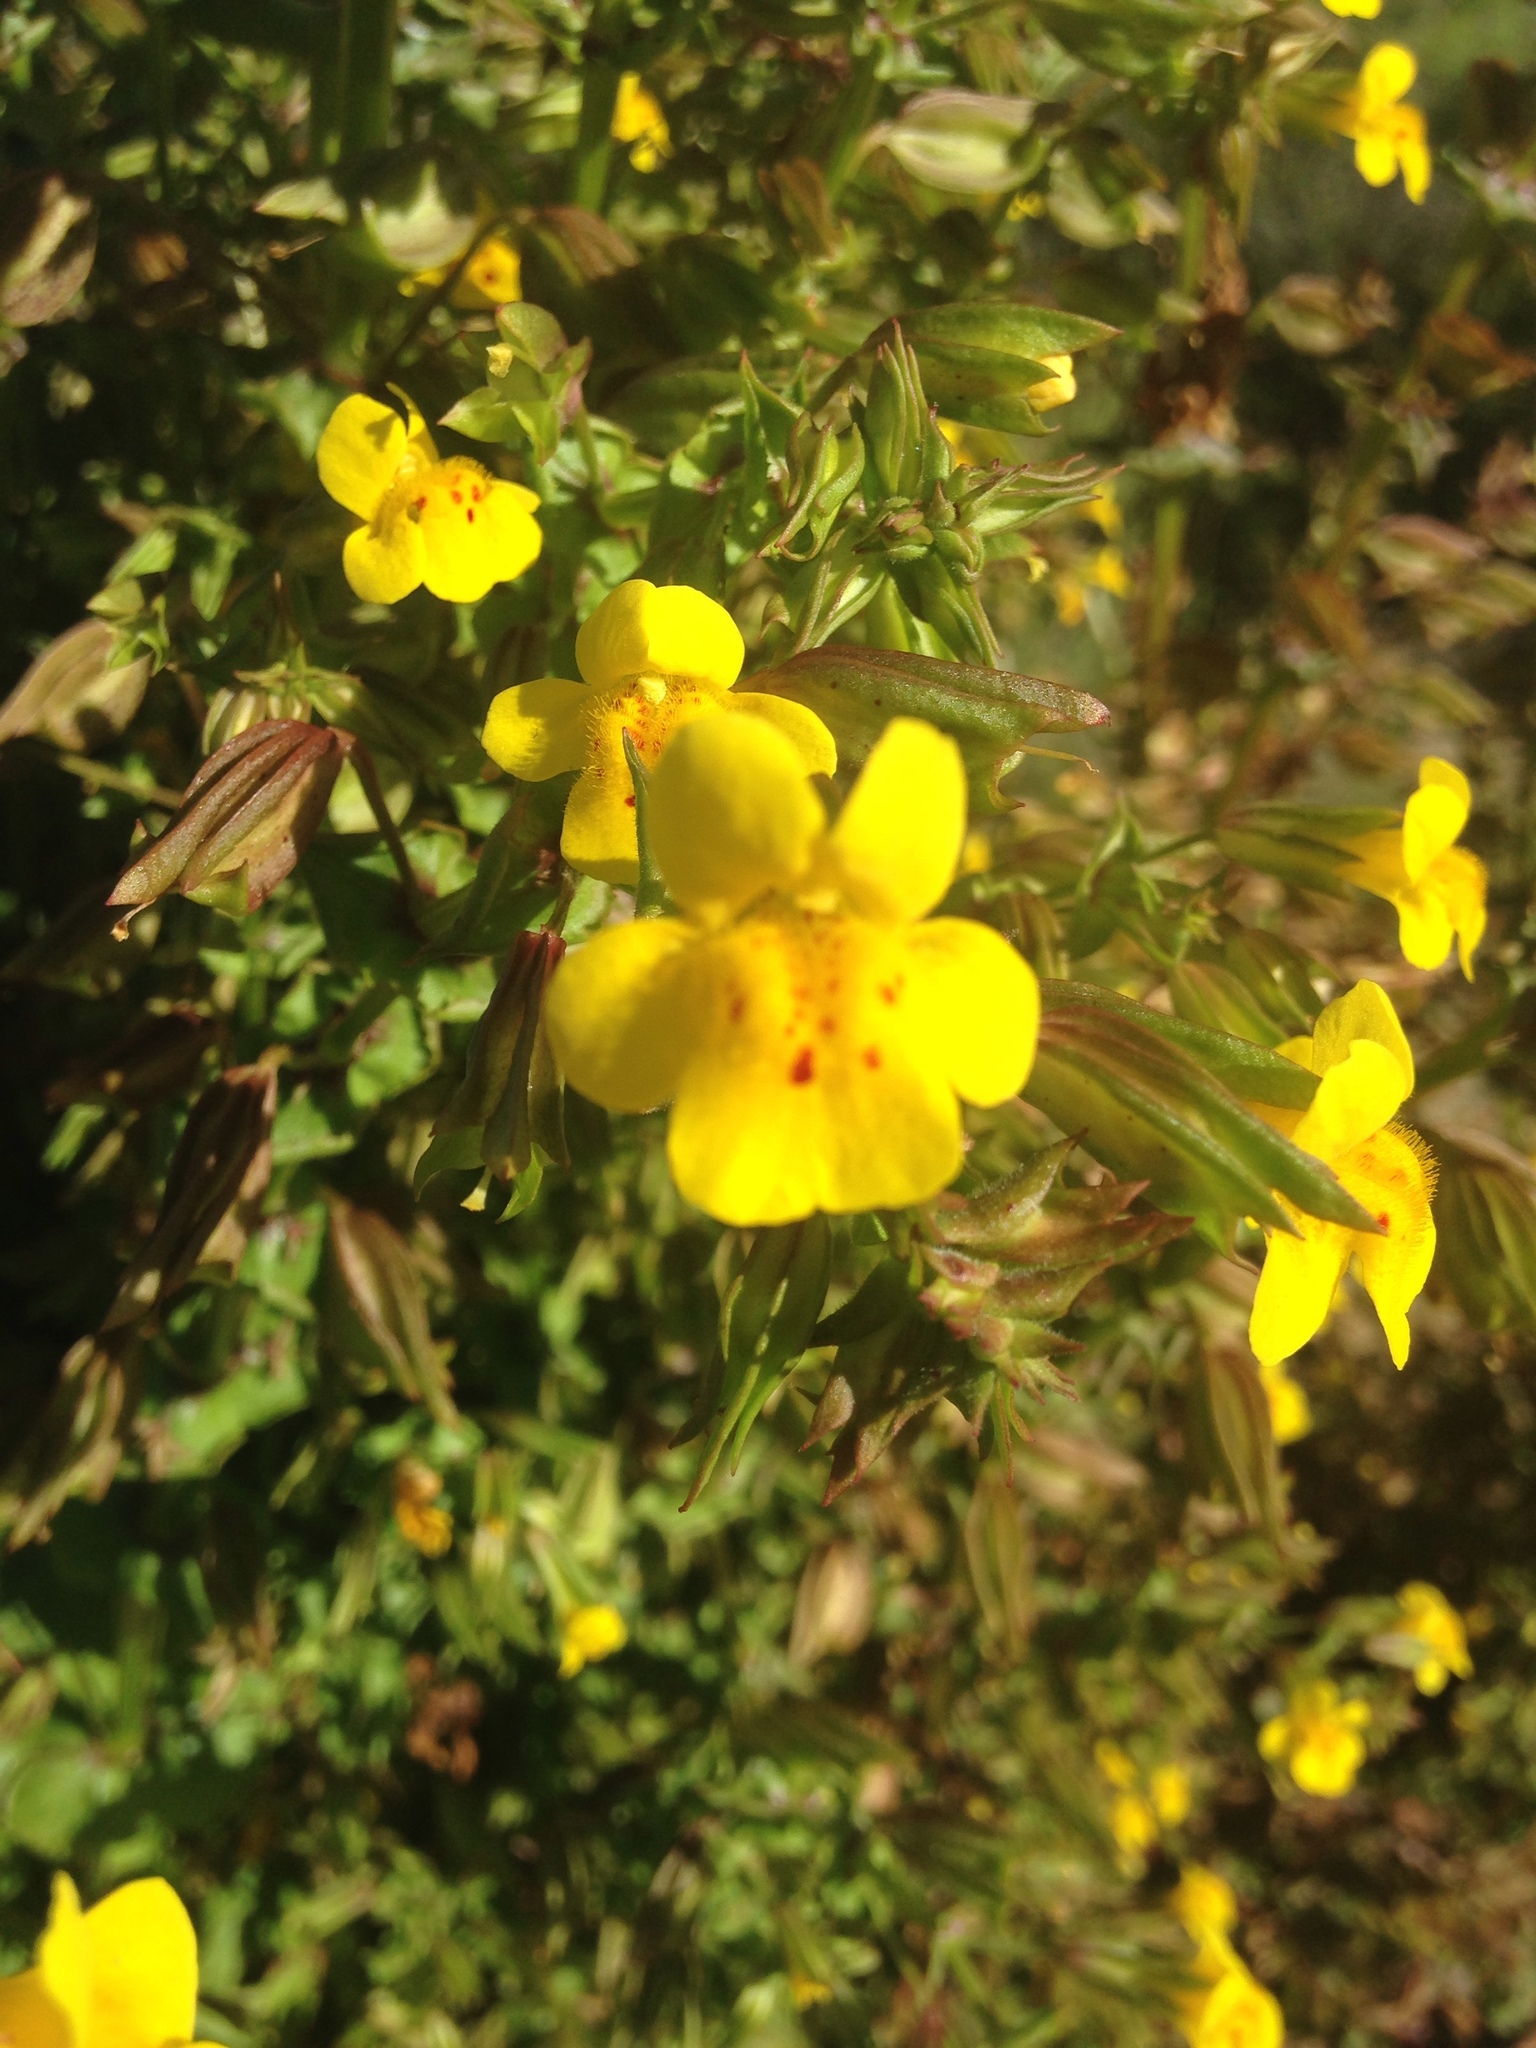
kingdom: Plantae
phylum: Tracheophyta
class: Magnoliopsida
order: Lamiales
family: Phrymaceae
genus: Erythranthe
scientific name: Erythranthe guttata
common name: Monkeyflower
